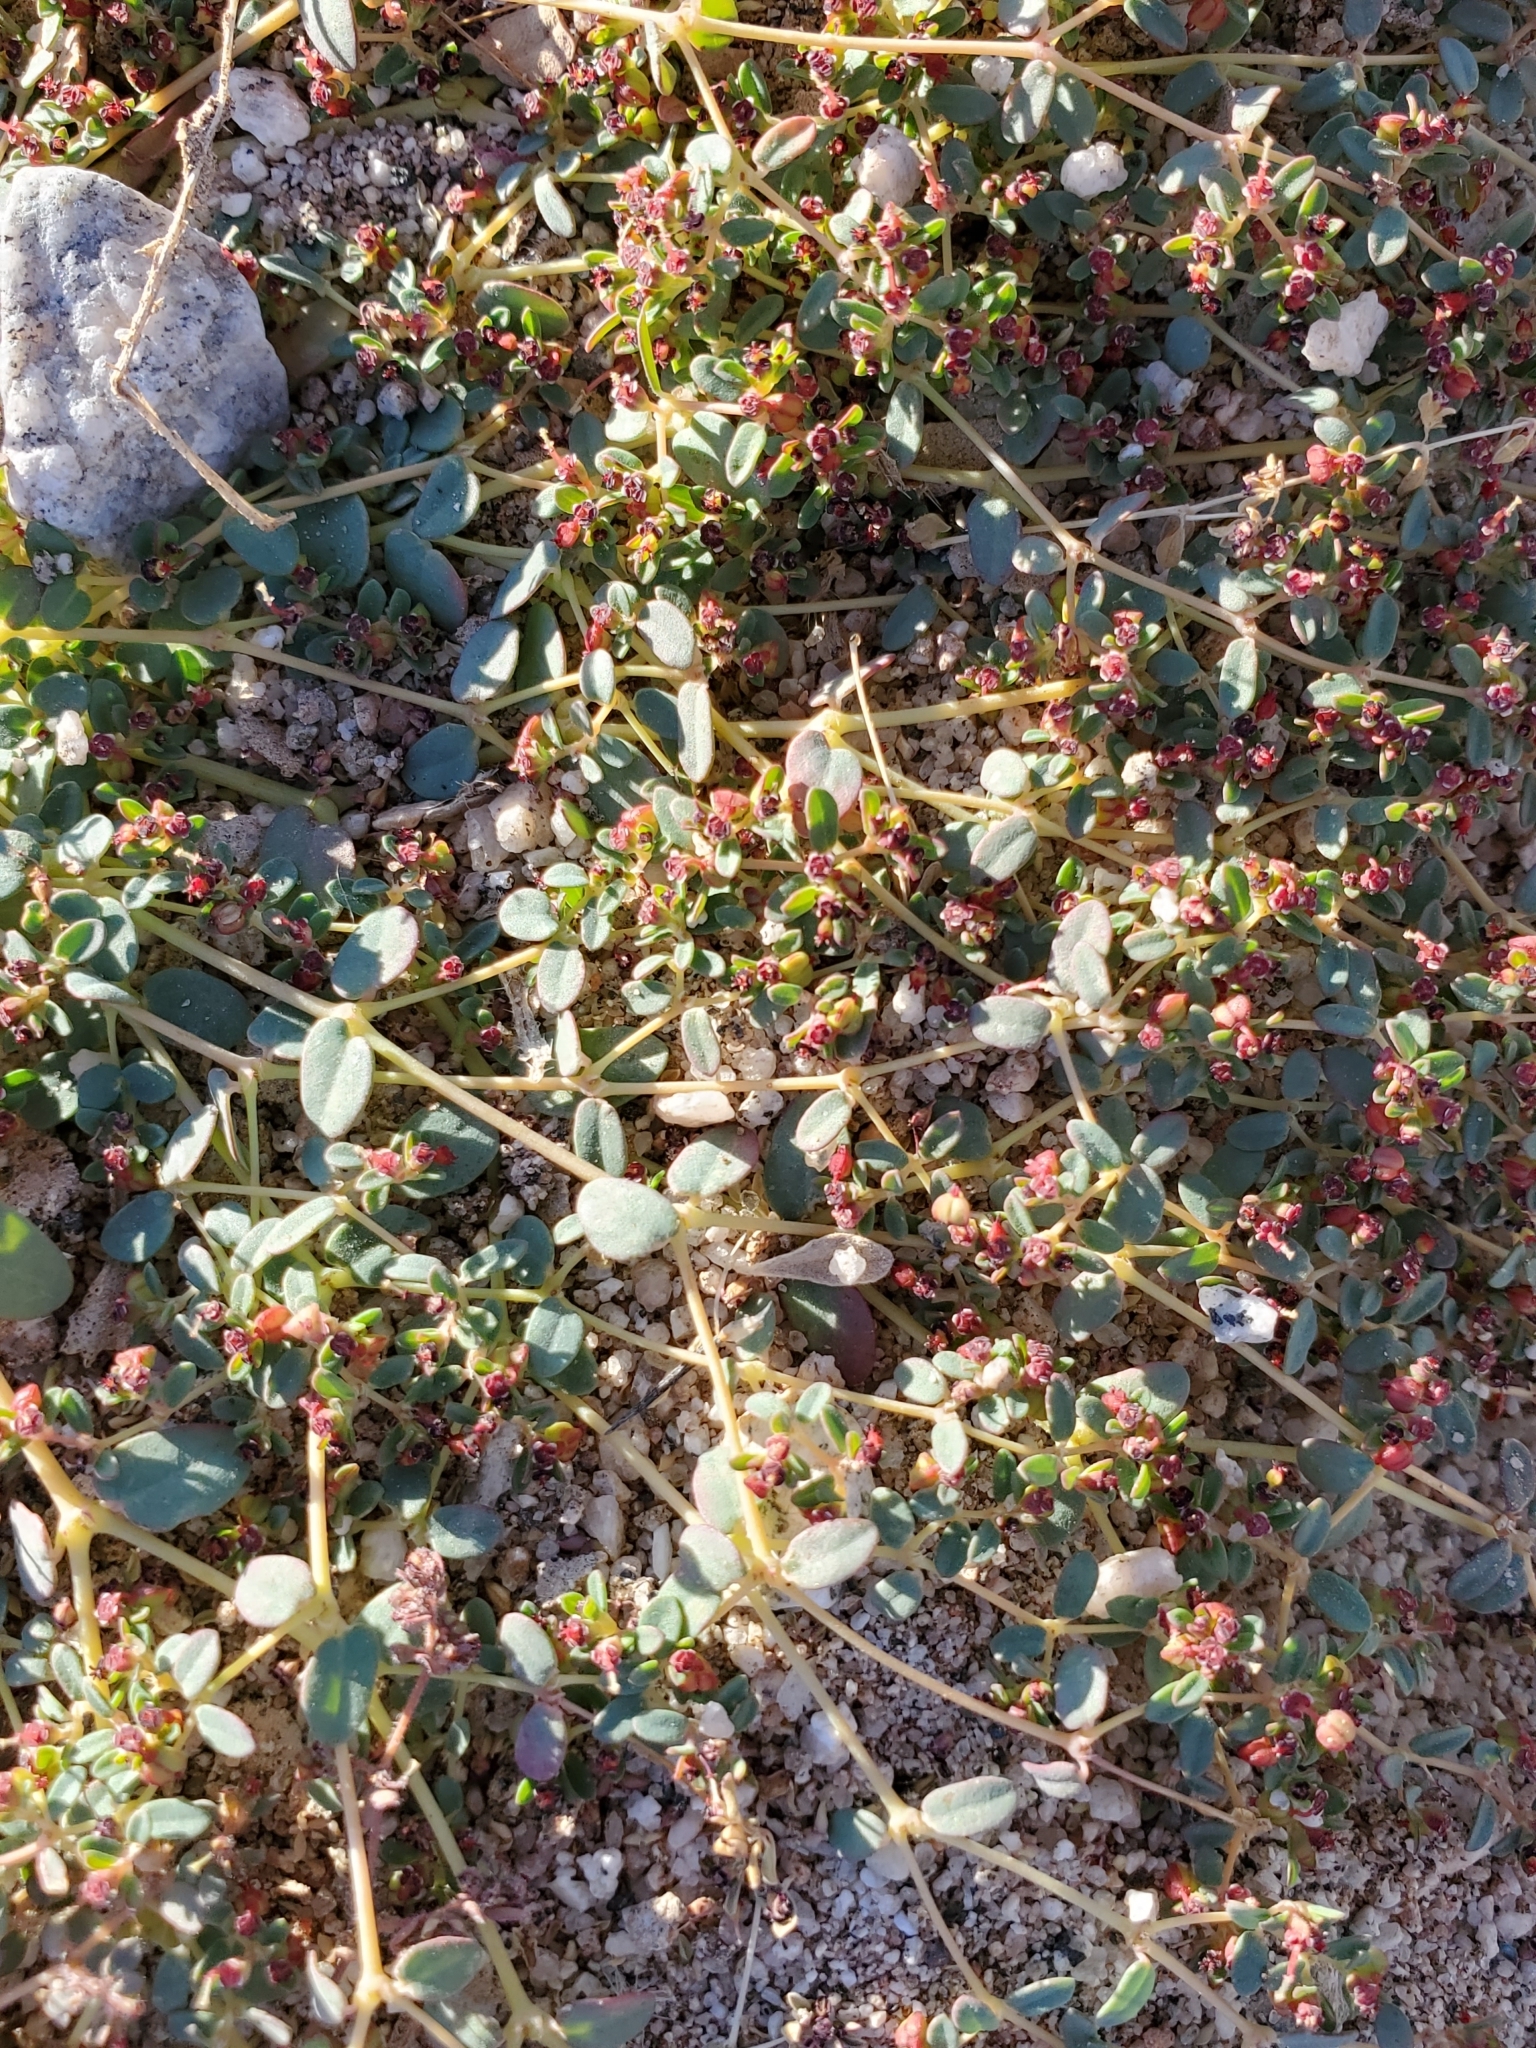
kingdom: Plantae
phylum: Tracheophyta
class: Magnoliopsida
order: Malpighiales
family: Euphorbiaceae
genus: Euphorbia
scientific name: Euphorbia polycarpa
